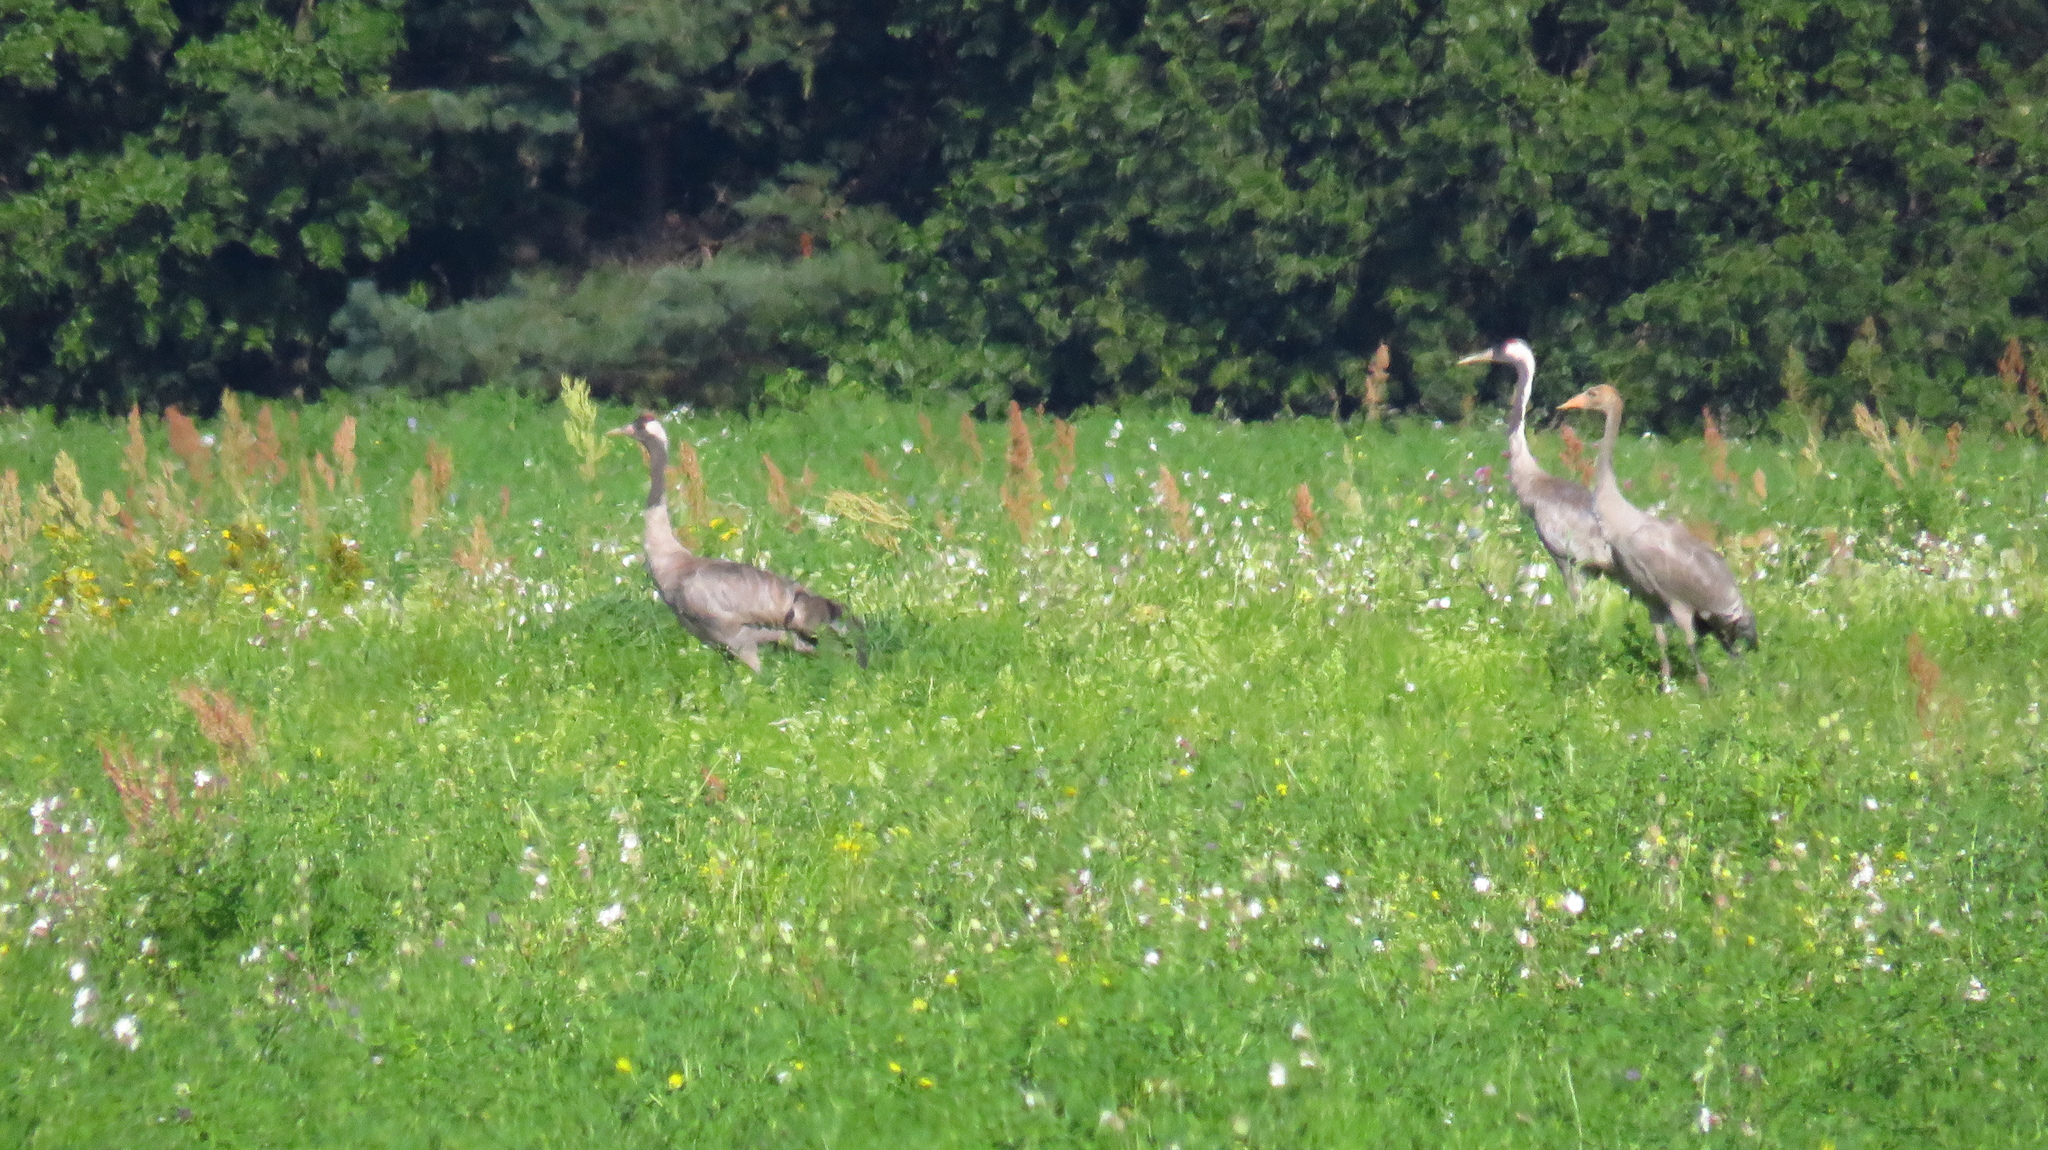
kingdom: Animalia
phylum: Chordata
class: Aves
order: Gruiformes
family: Gruidae
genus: Grus
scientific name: Grus grus
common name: Common crane
